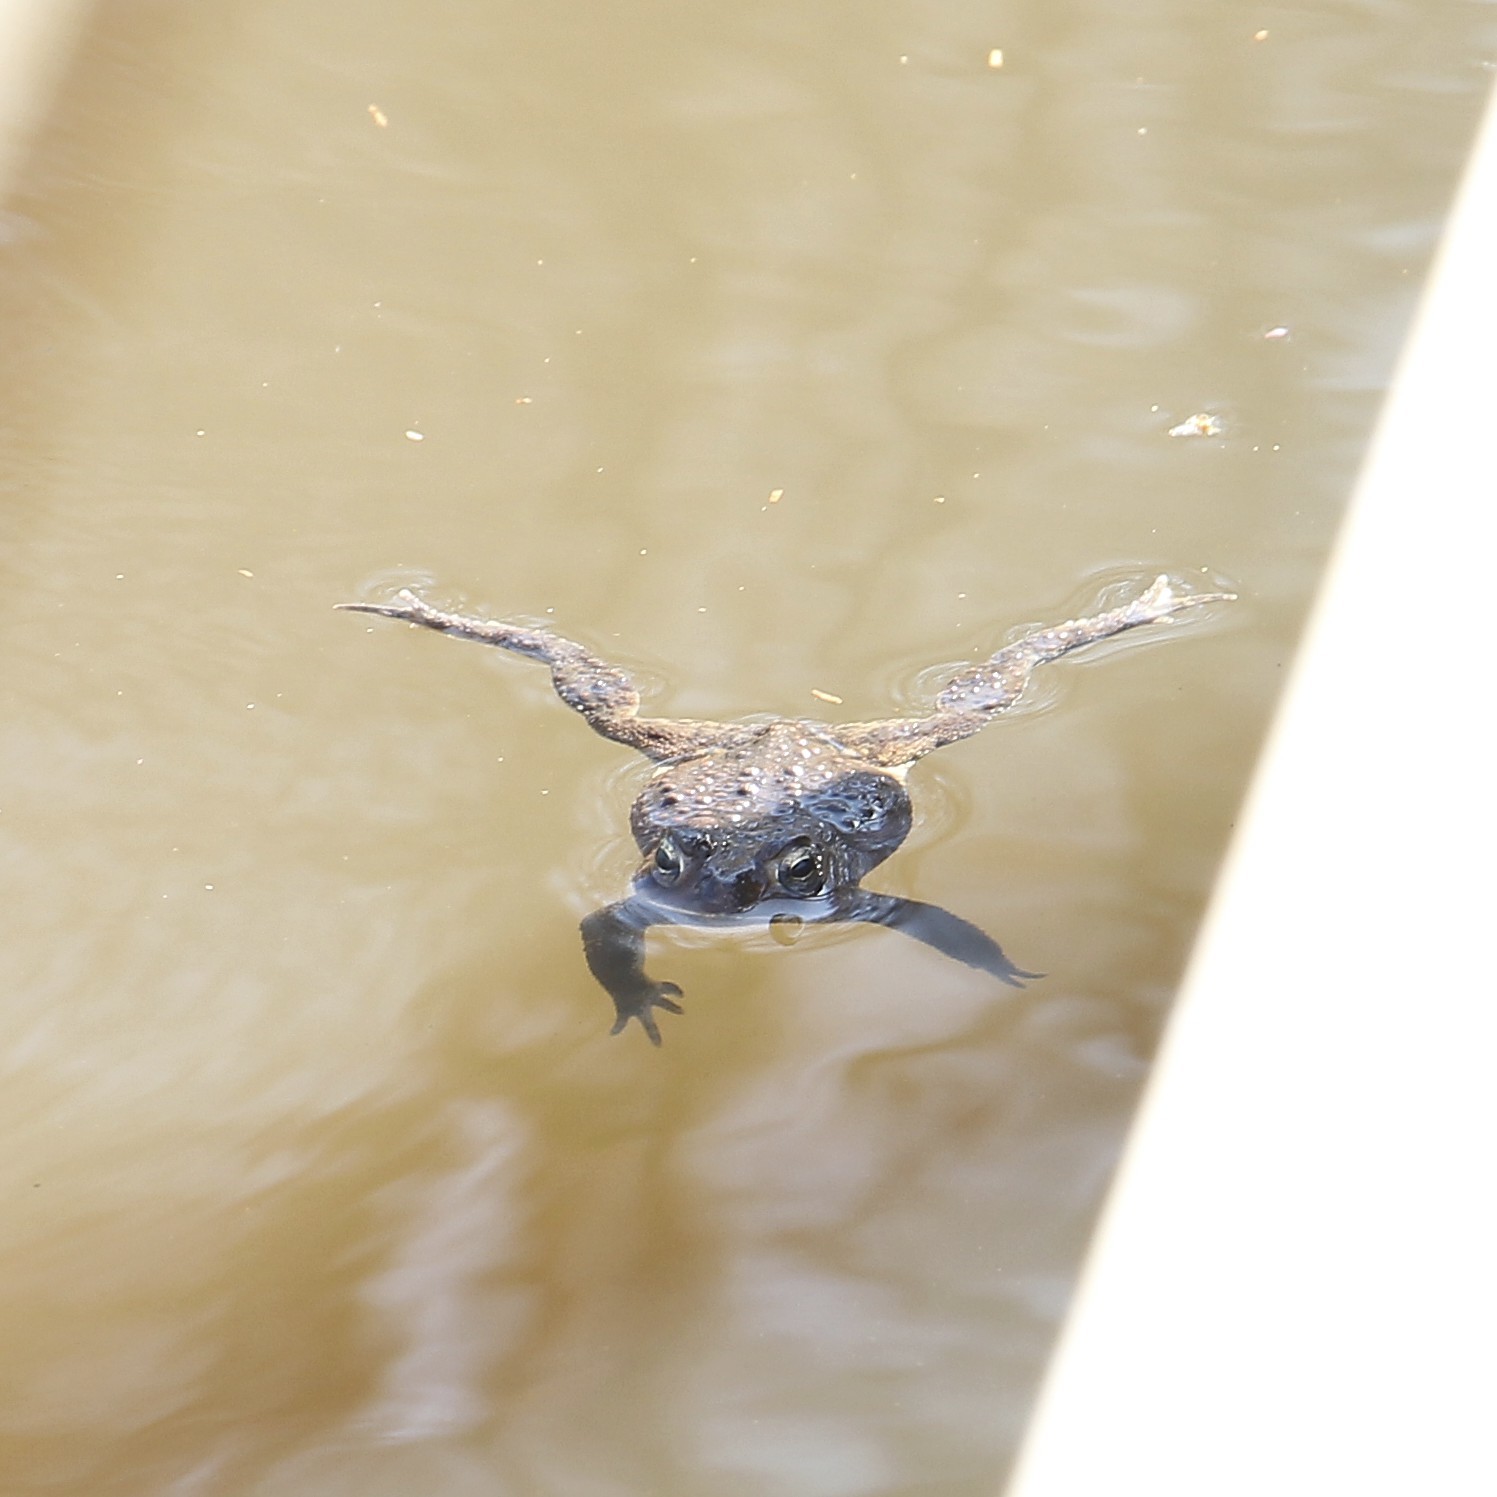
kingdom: Animalia
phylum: Chordata
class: Amphibia
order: Anura
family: Bufonidae
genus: Anaxyrus
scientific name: Anaxyrus americanus
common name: American toad
